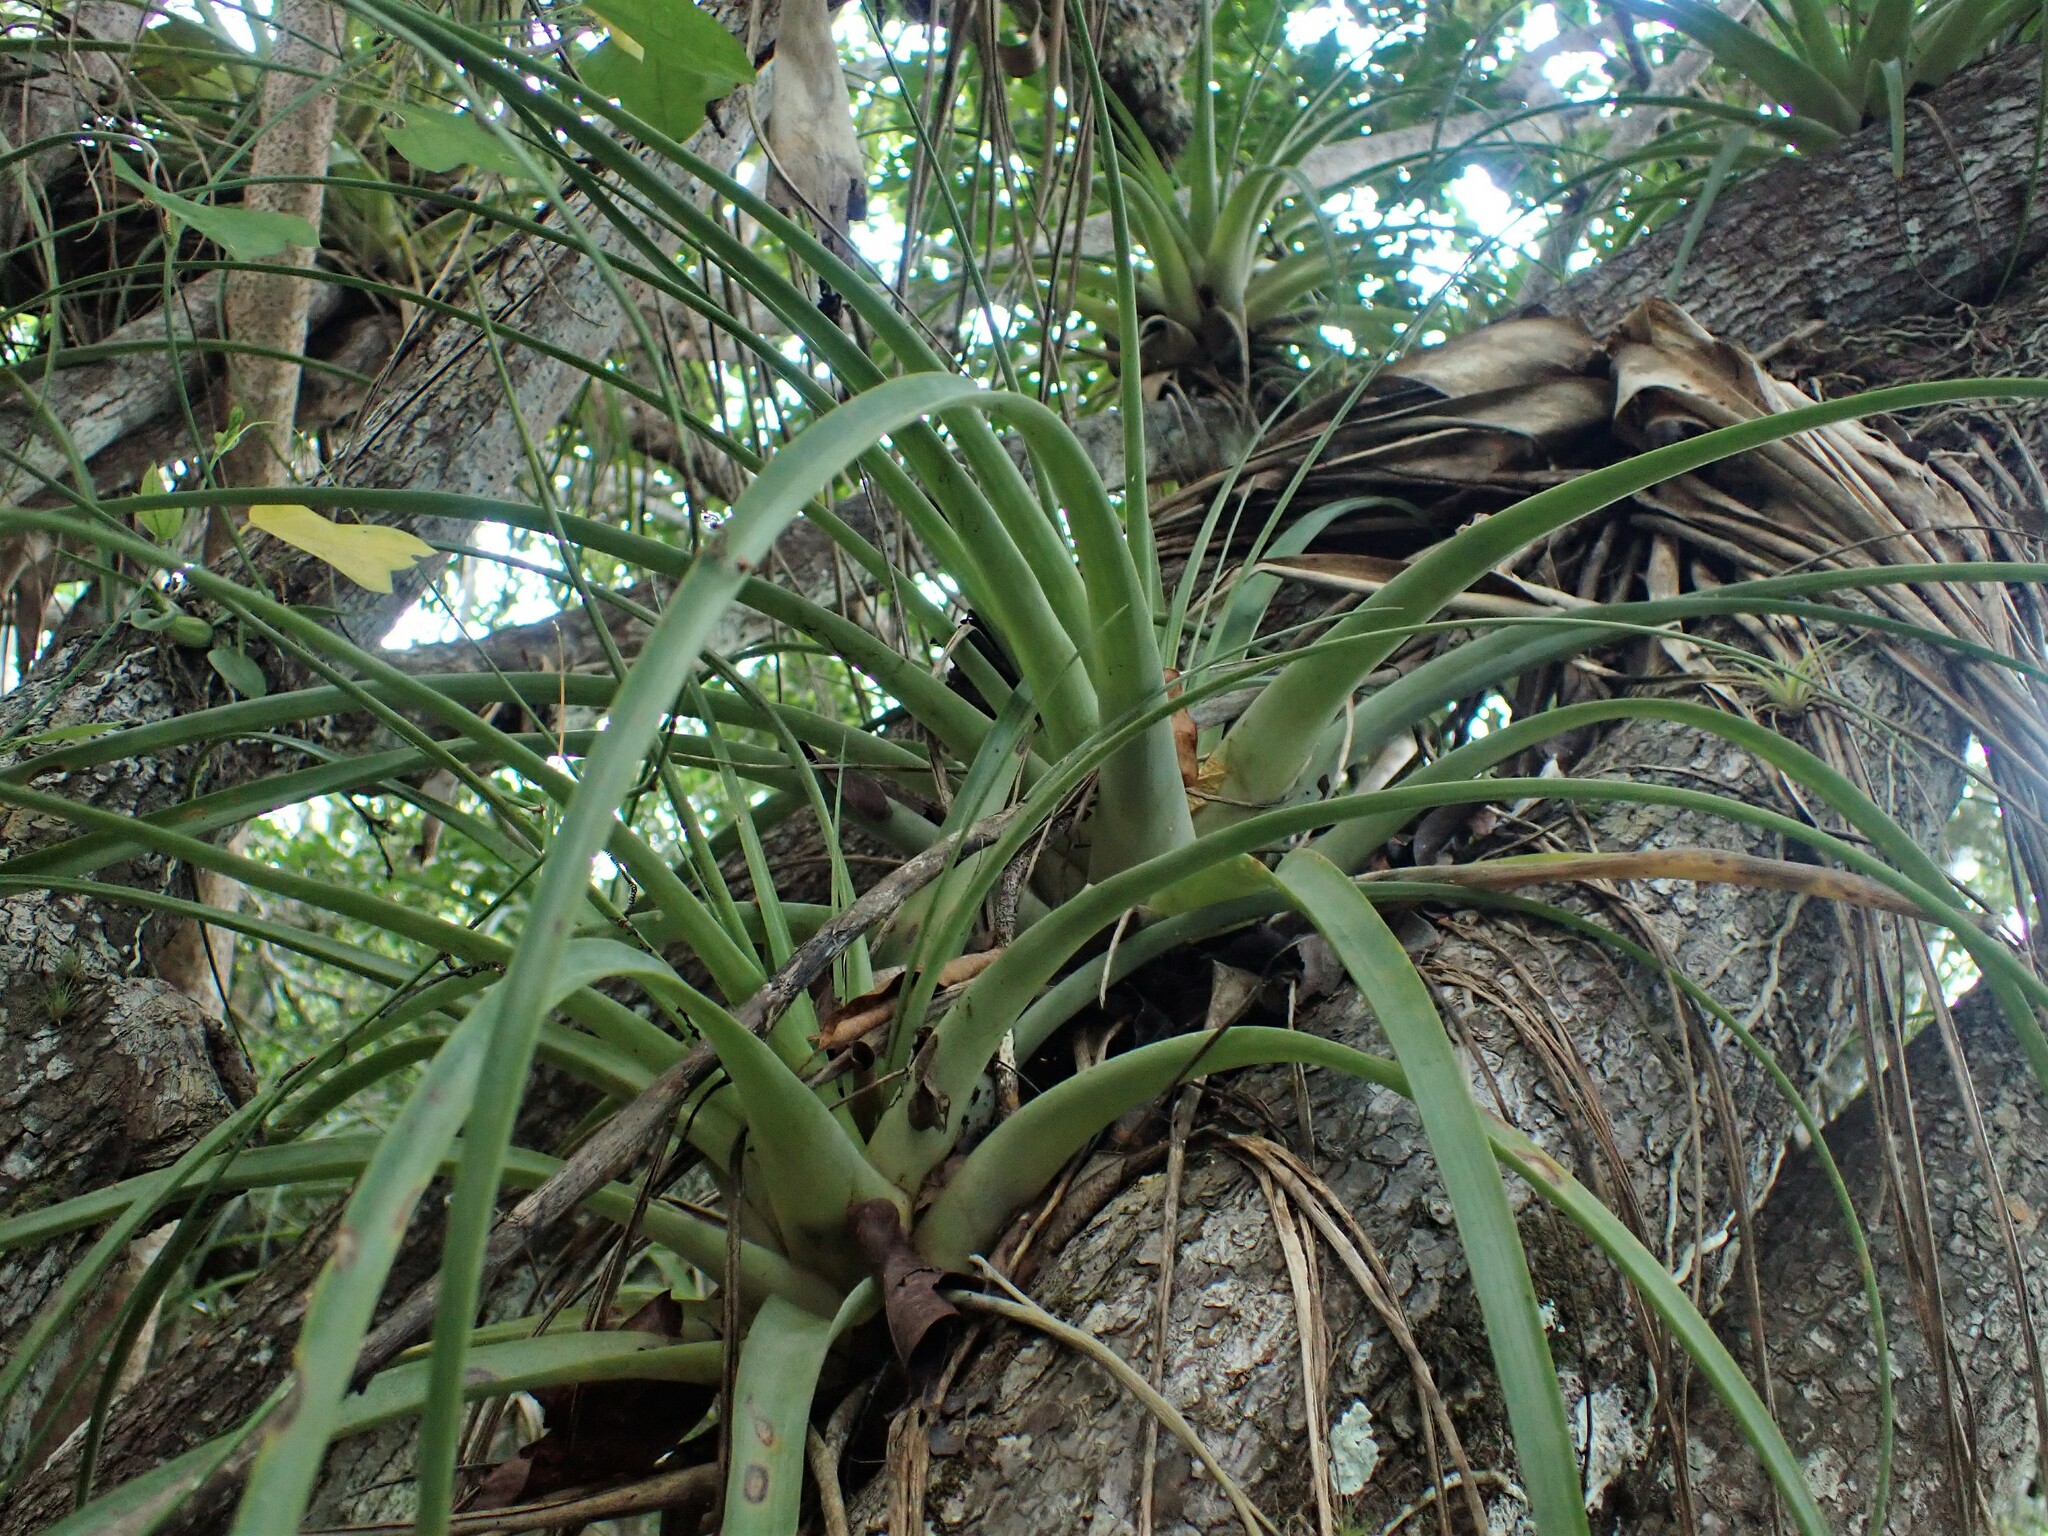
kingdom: Plantae
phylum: Tracheophyta
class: Liliopsida
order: Poales
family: Bromeliaceae
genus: Tillandsia
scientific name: Tillandsia utriculata
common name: Wild pine
